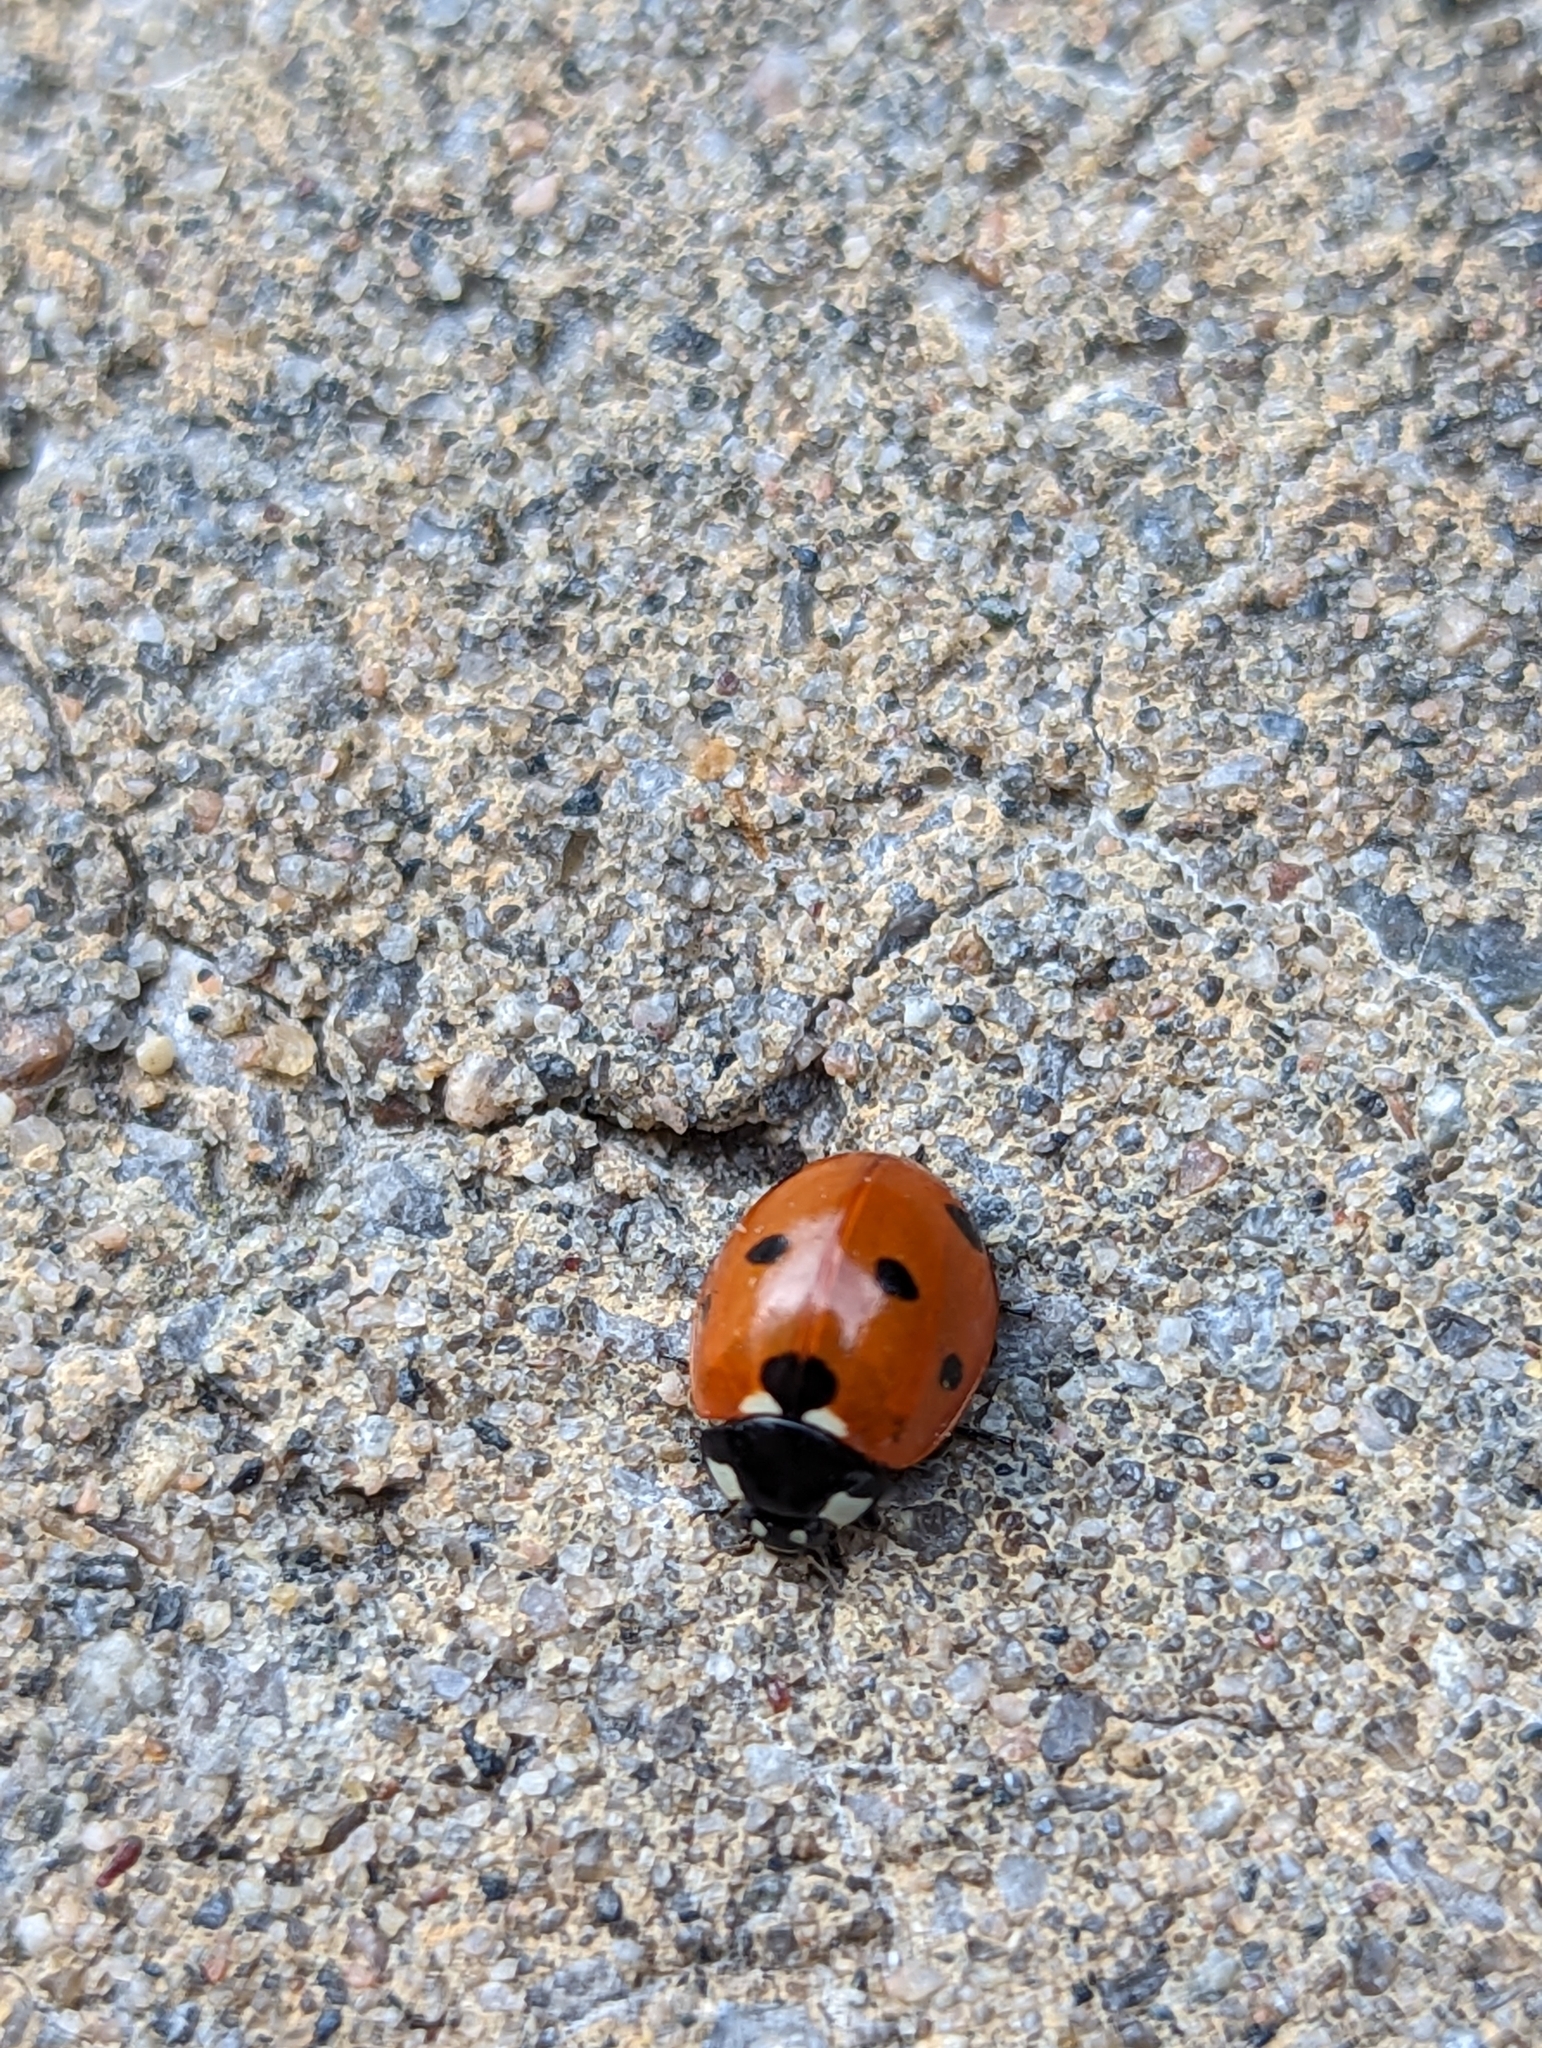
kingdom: Animalia
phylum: Arthropoda
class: Insecta
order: Coleoptera
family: Coccinellidae
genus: Coccinella
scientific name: Coccinella septempunctata
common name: Sevenspotted lady beetle
